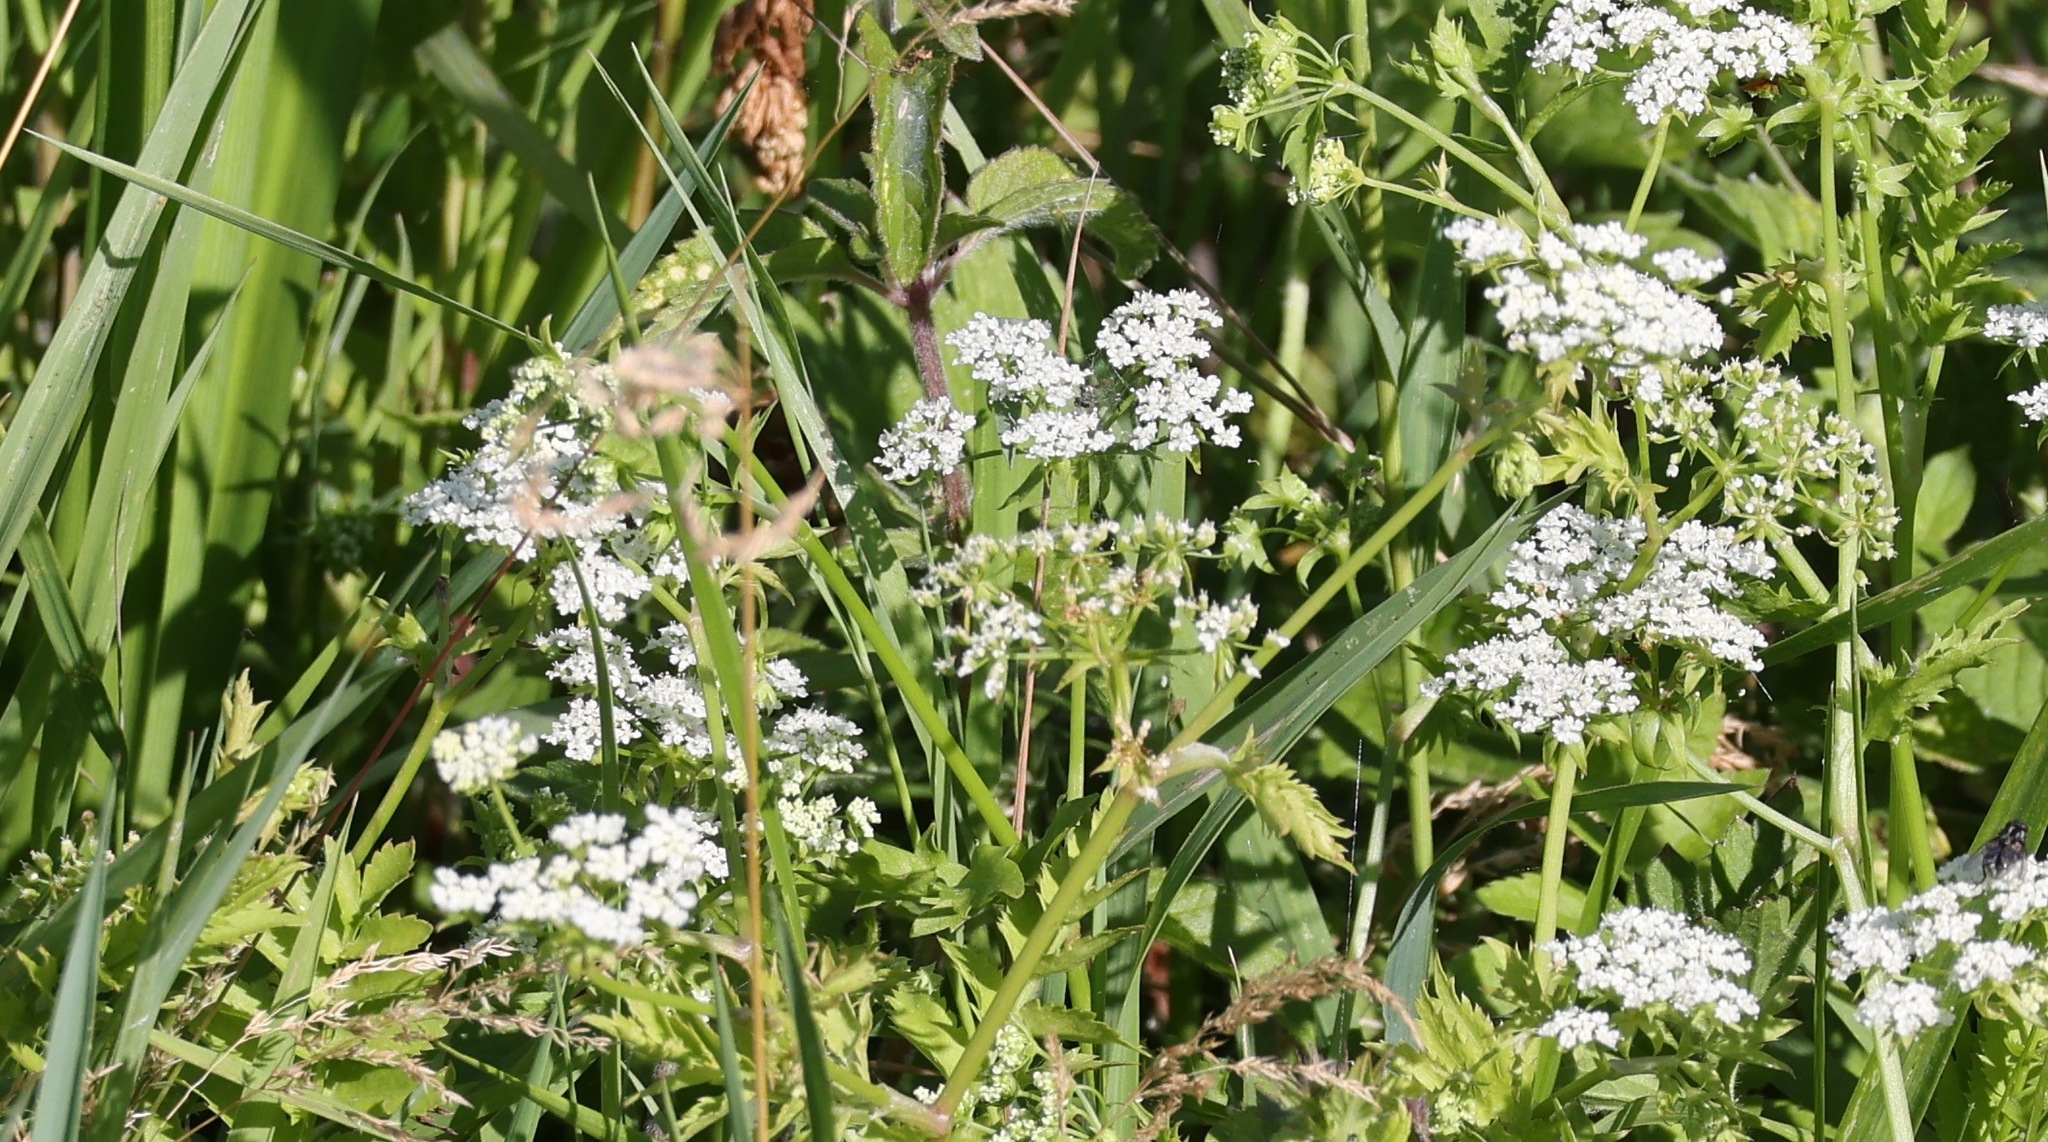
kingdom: Plantae
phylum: Tracheophyta
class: Magnoliopsida
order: Apiales
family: Apiaceae
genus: Berula
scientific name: Berula erecta
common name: Lesser water-parsnip
